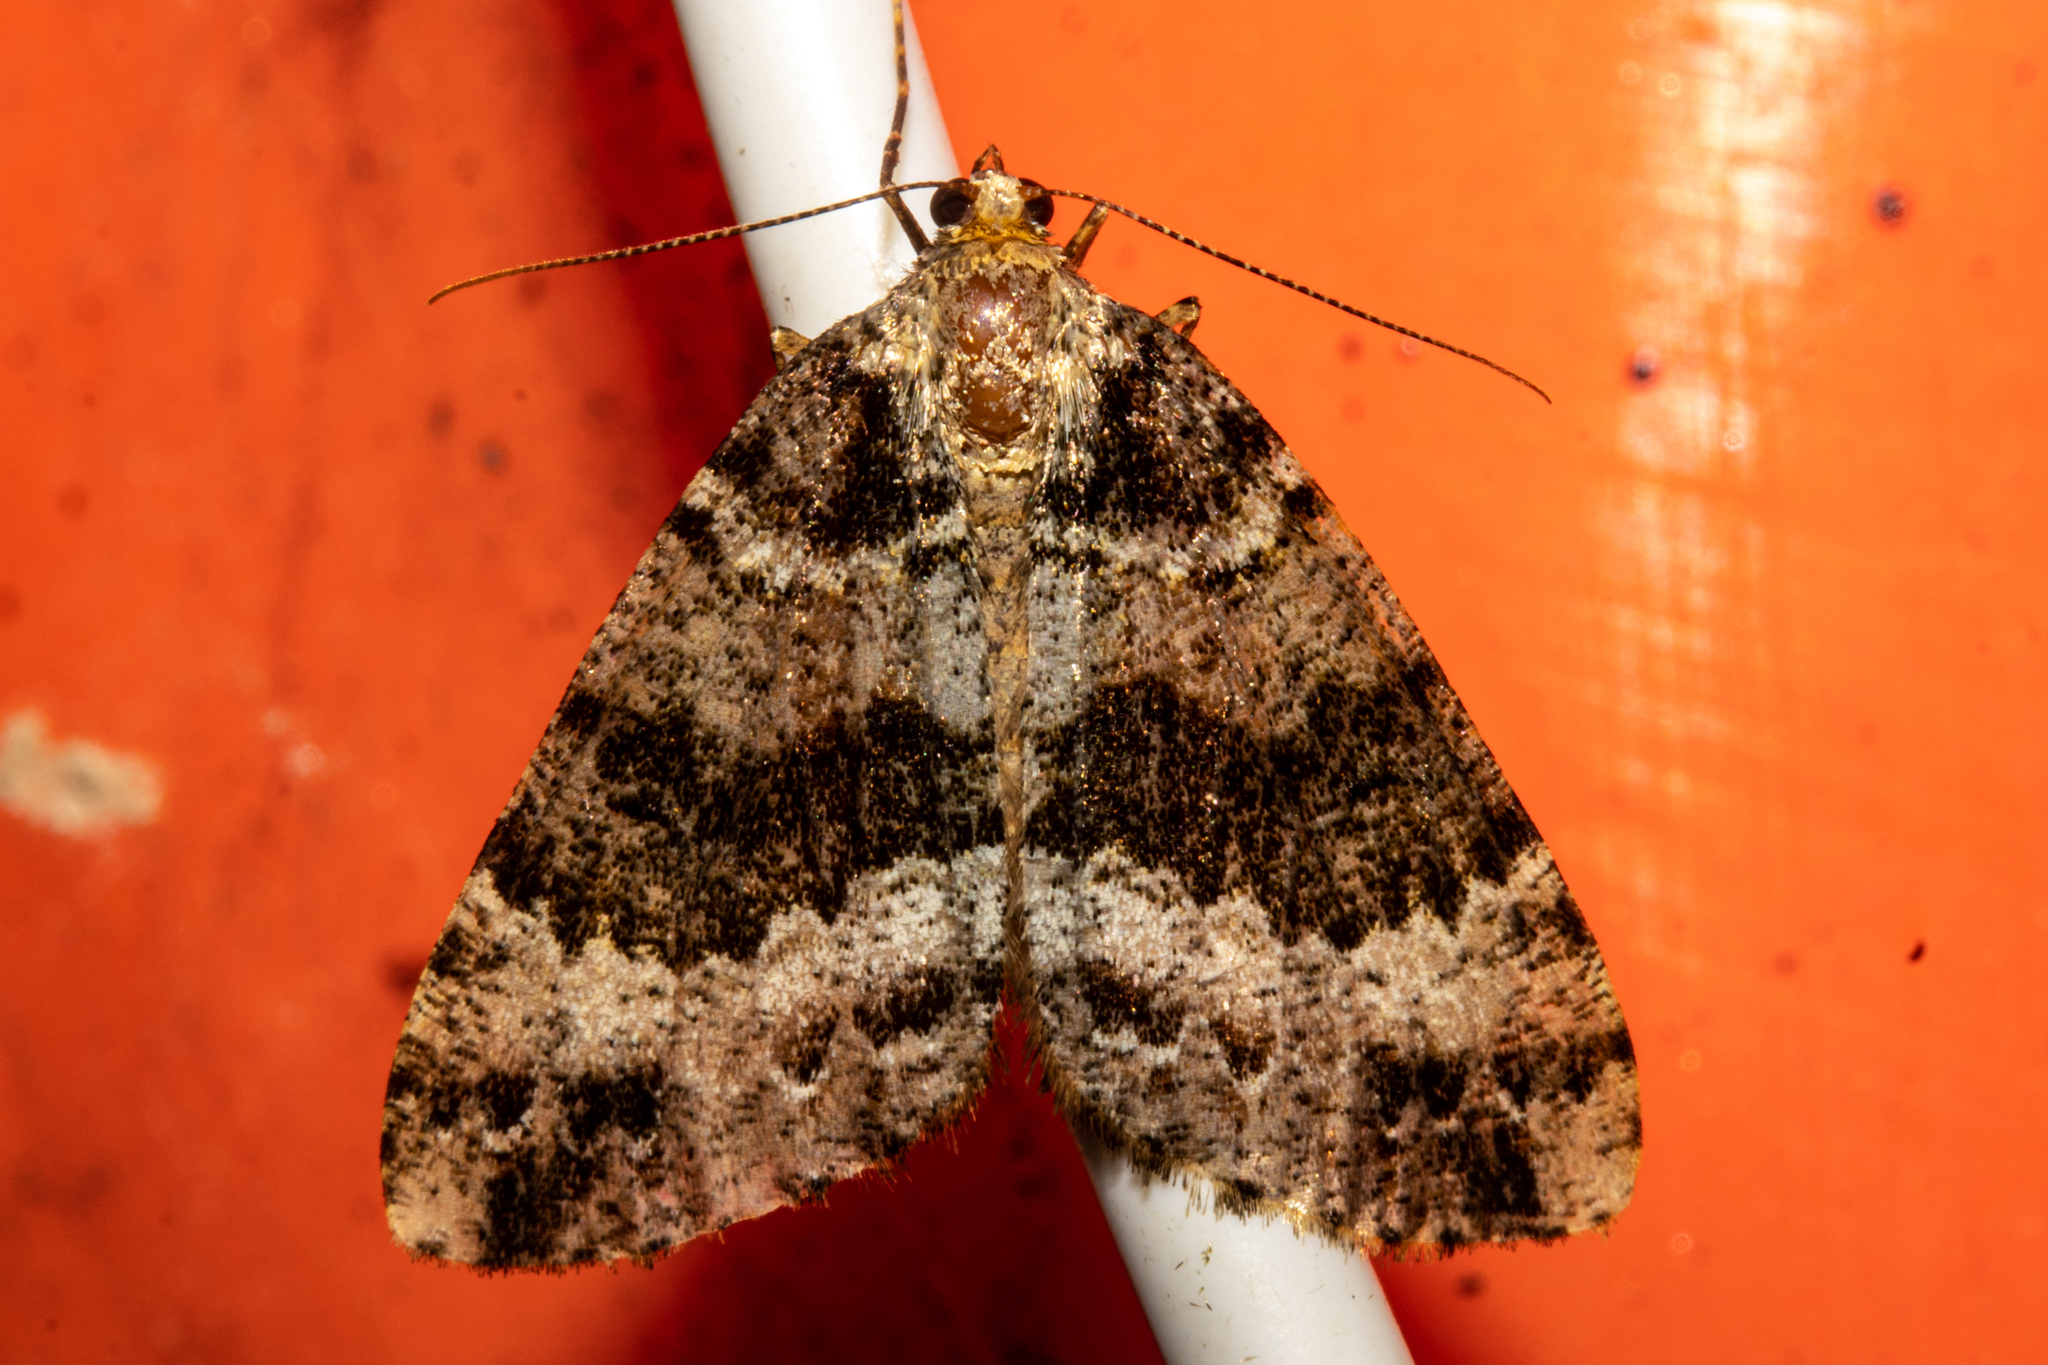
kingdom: Animalia
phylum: Arthropoda
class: Insecta
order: Lepidoptera
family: Geometridae
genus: Pseudocoremia
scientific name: Pseudocoremia productata
